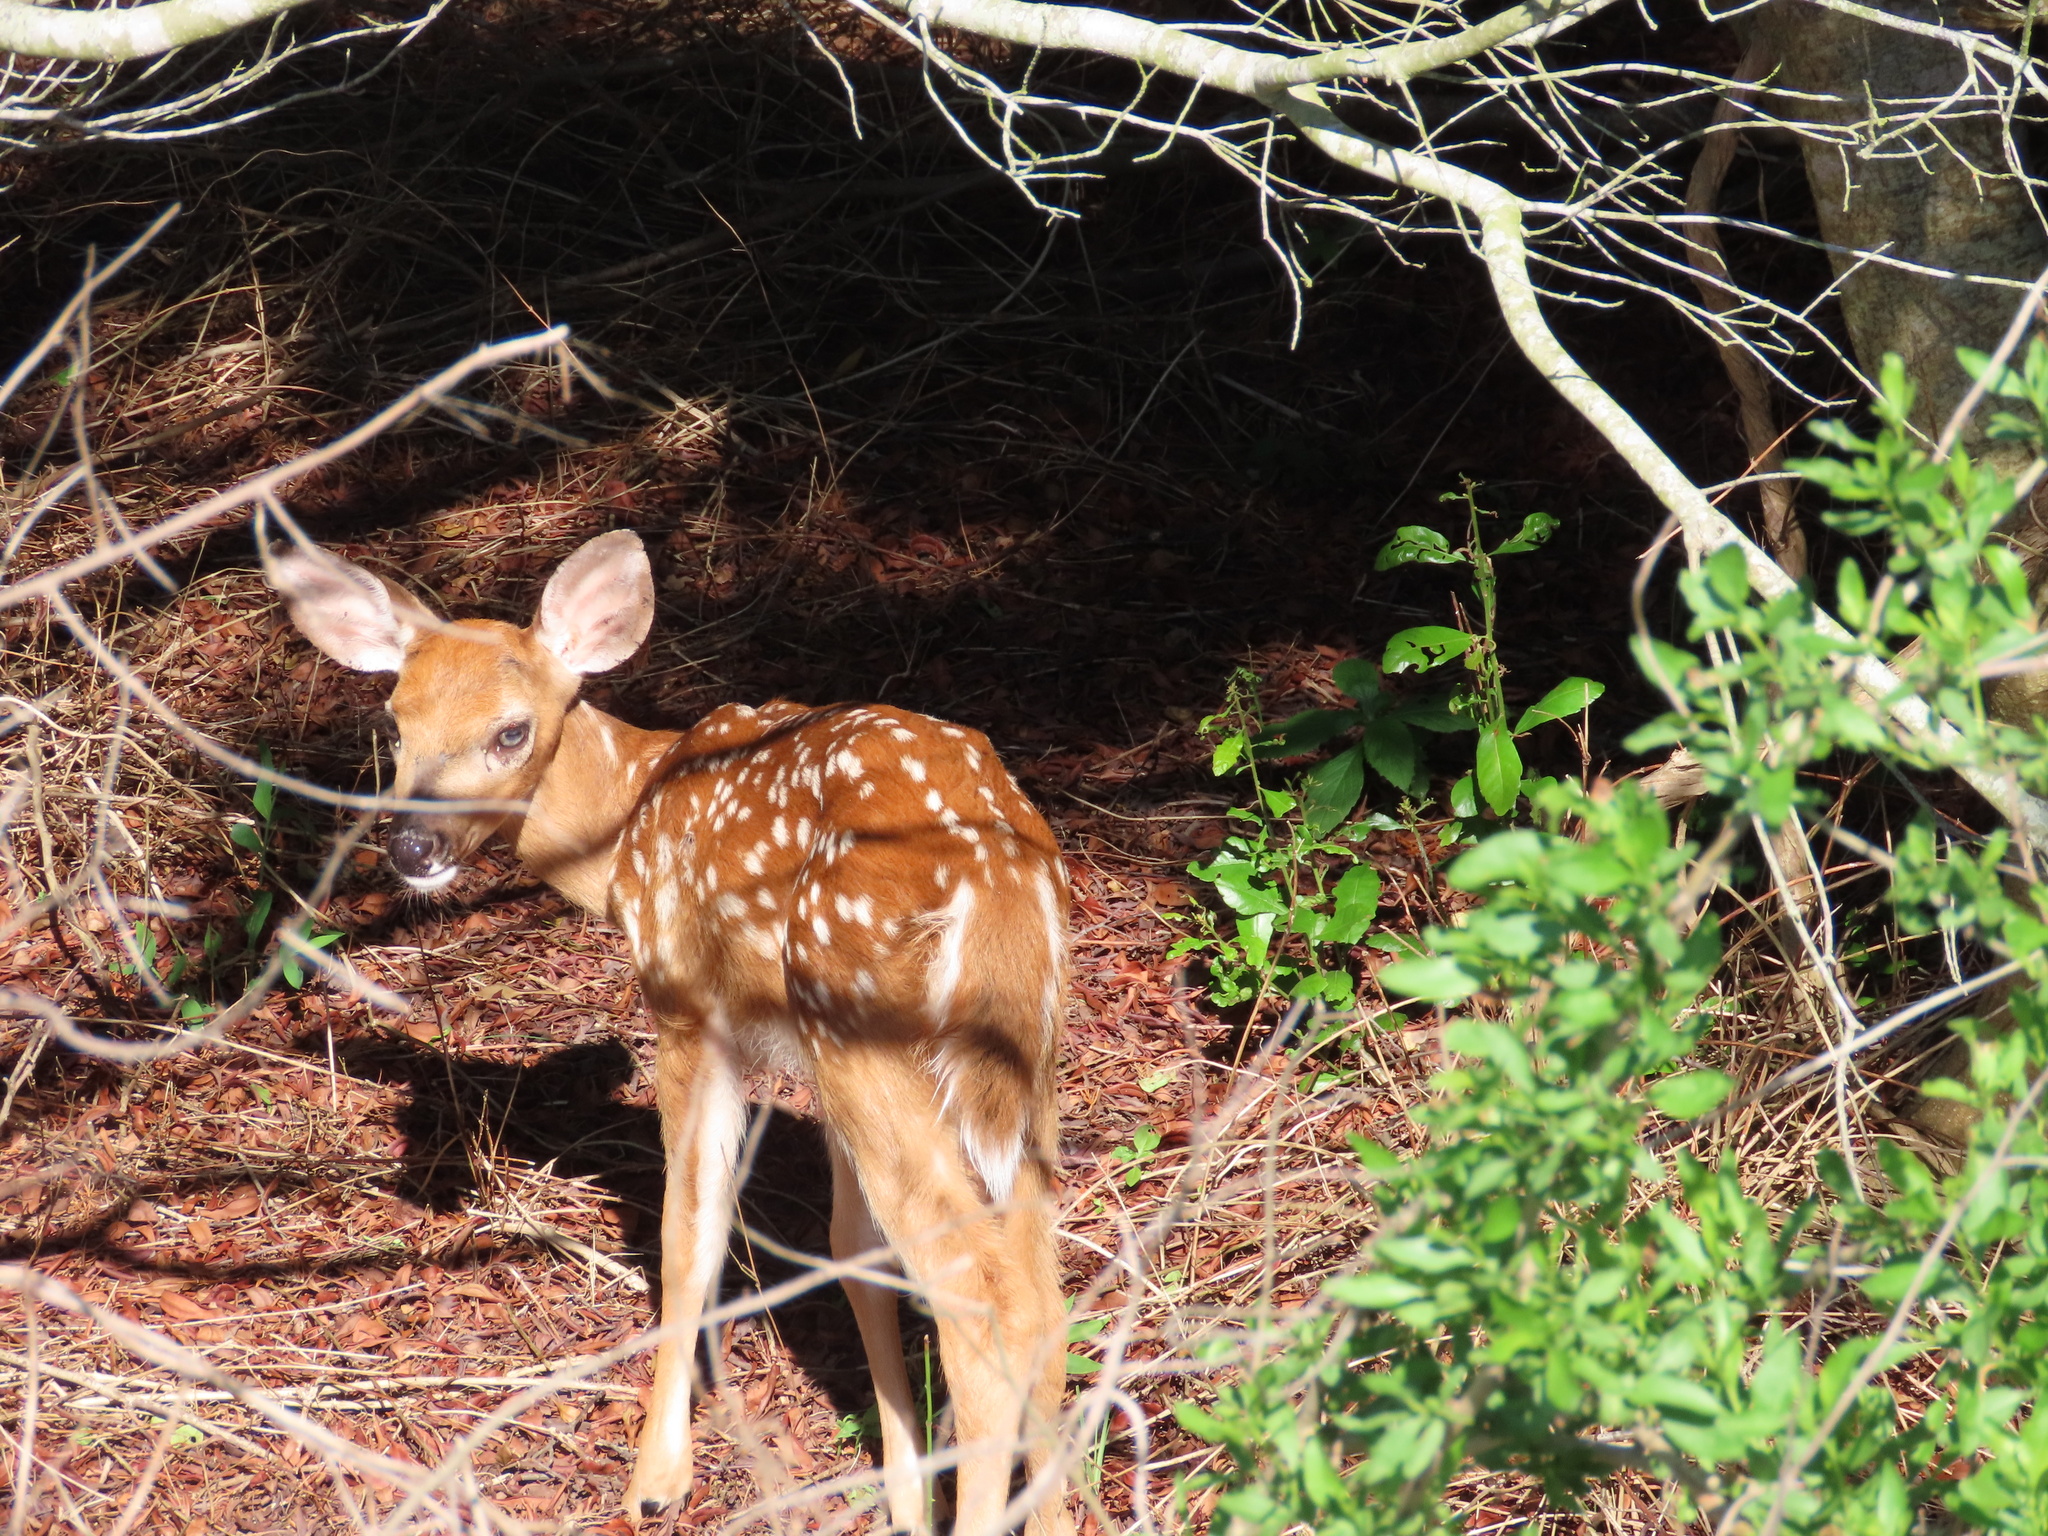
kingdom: Animalia
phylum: Chordata
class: Mammalia
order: Artiodactyla
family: Cervidae
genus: Odocoileus
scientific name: Odocoileus virginianus
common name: White-tailed deer
